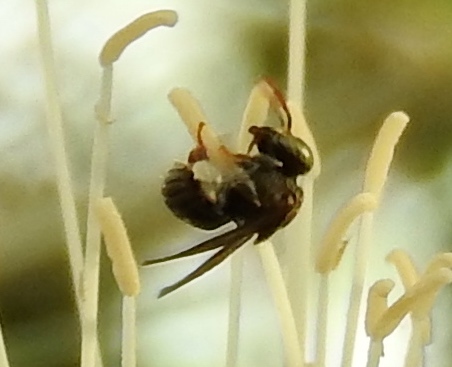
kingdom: Animalia
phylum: Arthropoda
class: Insecta
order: Hymenoptera
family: Apidae
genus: Nannotrigona
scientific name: Nannotrigona perilampoides
